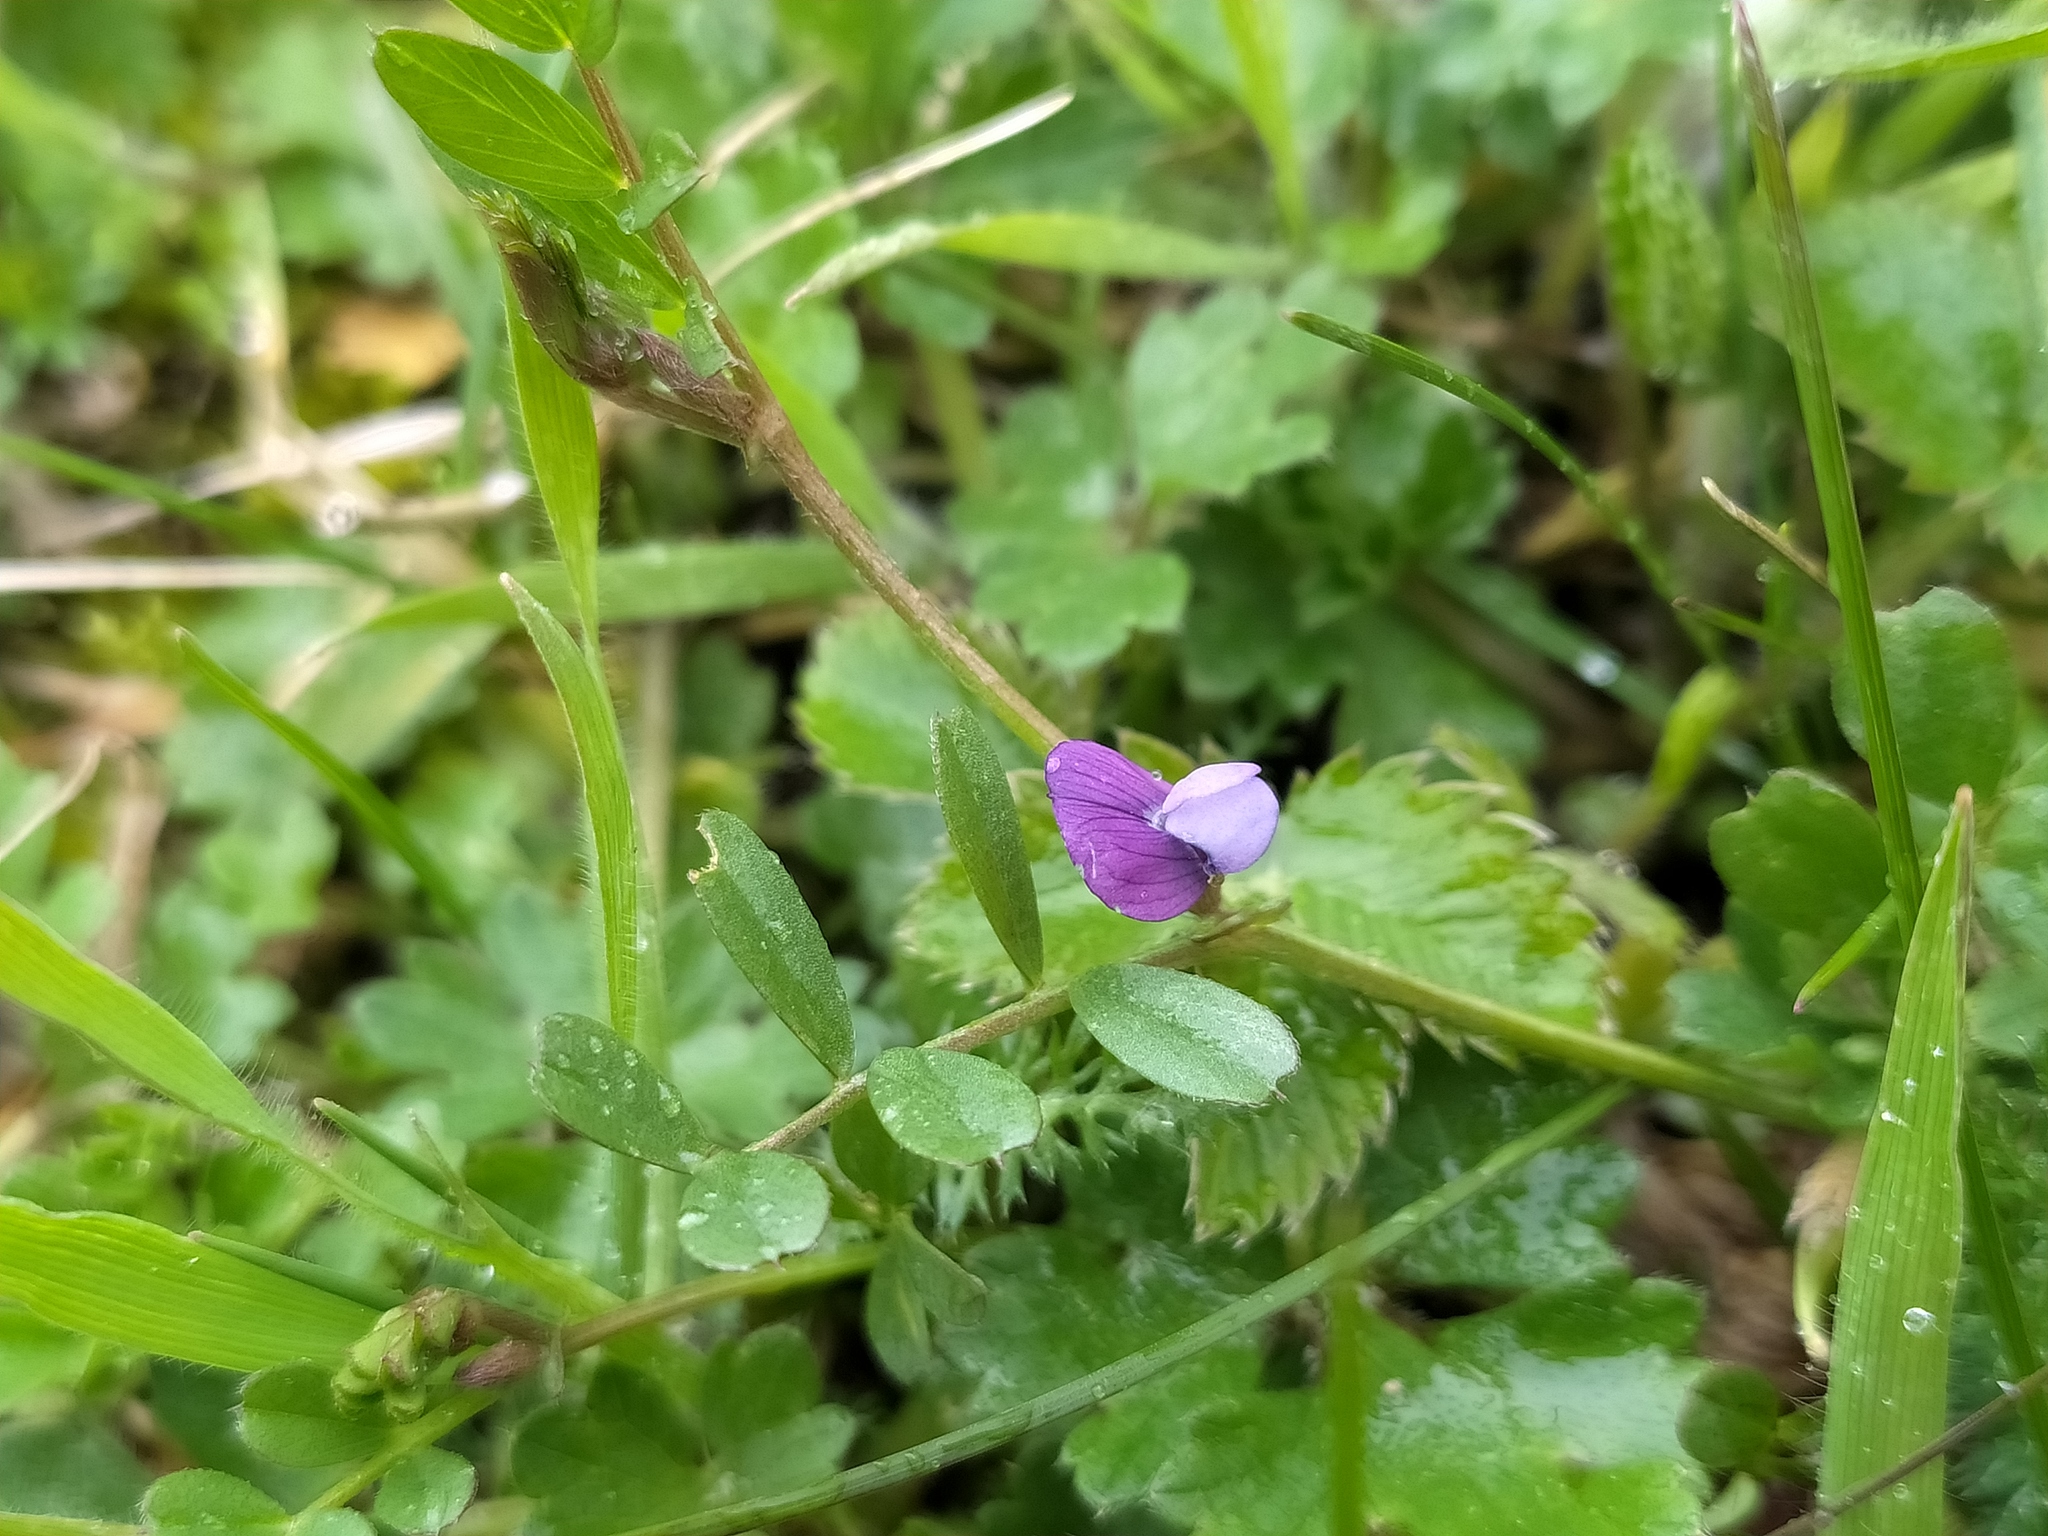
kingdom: Plantae
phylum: Tracheophyta
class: Magnoliopsida
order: Fabales
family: Fabaceae
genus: Vicia
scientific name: Vicia lathyroides
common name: Spring vetch
